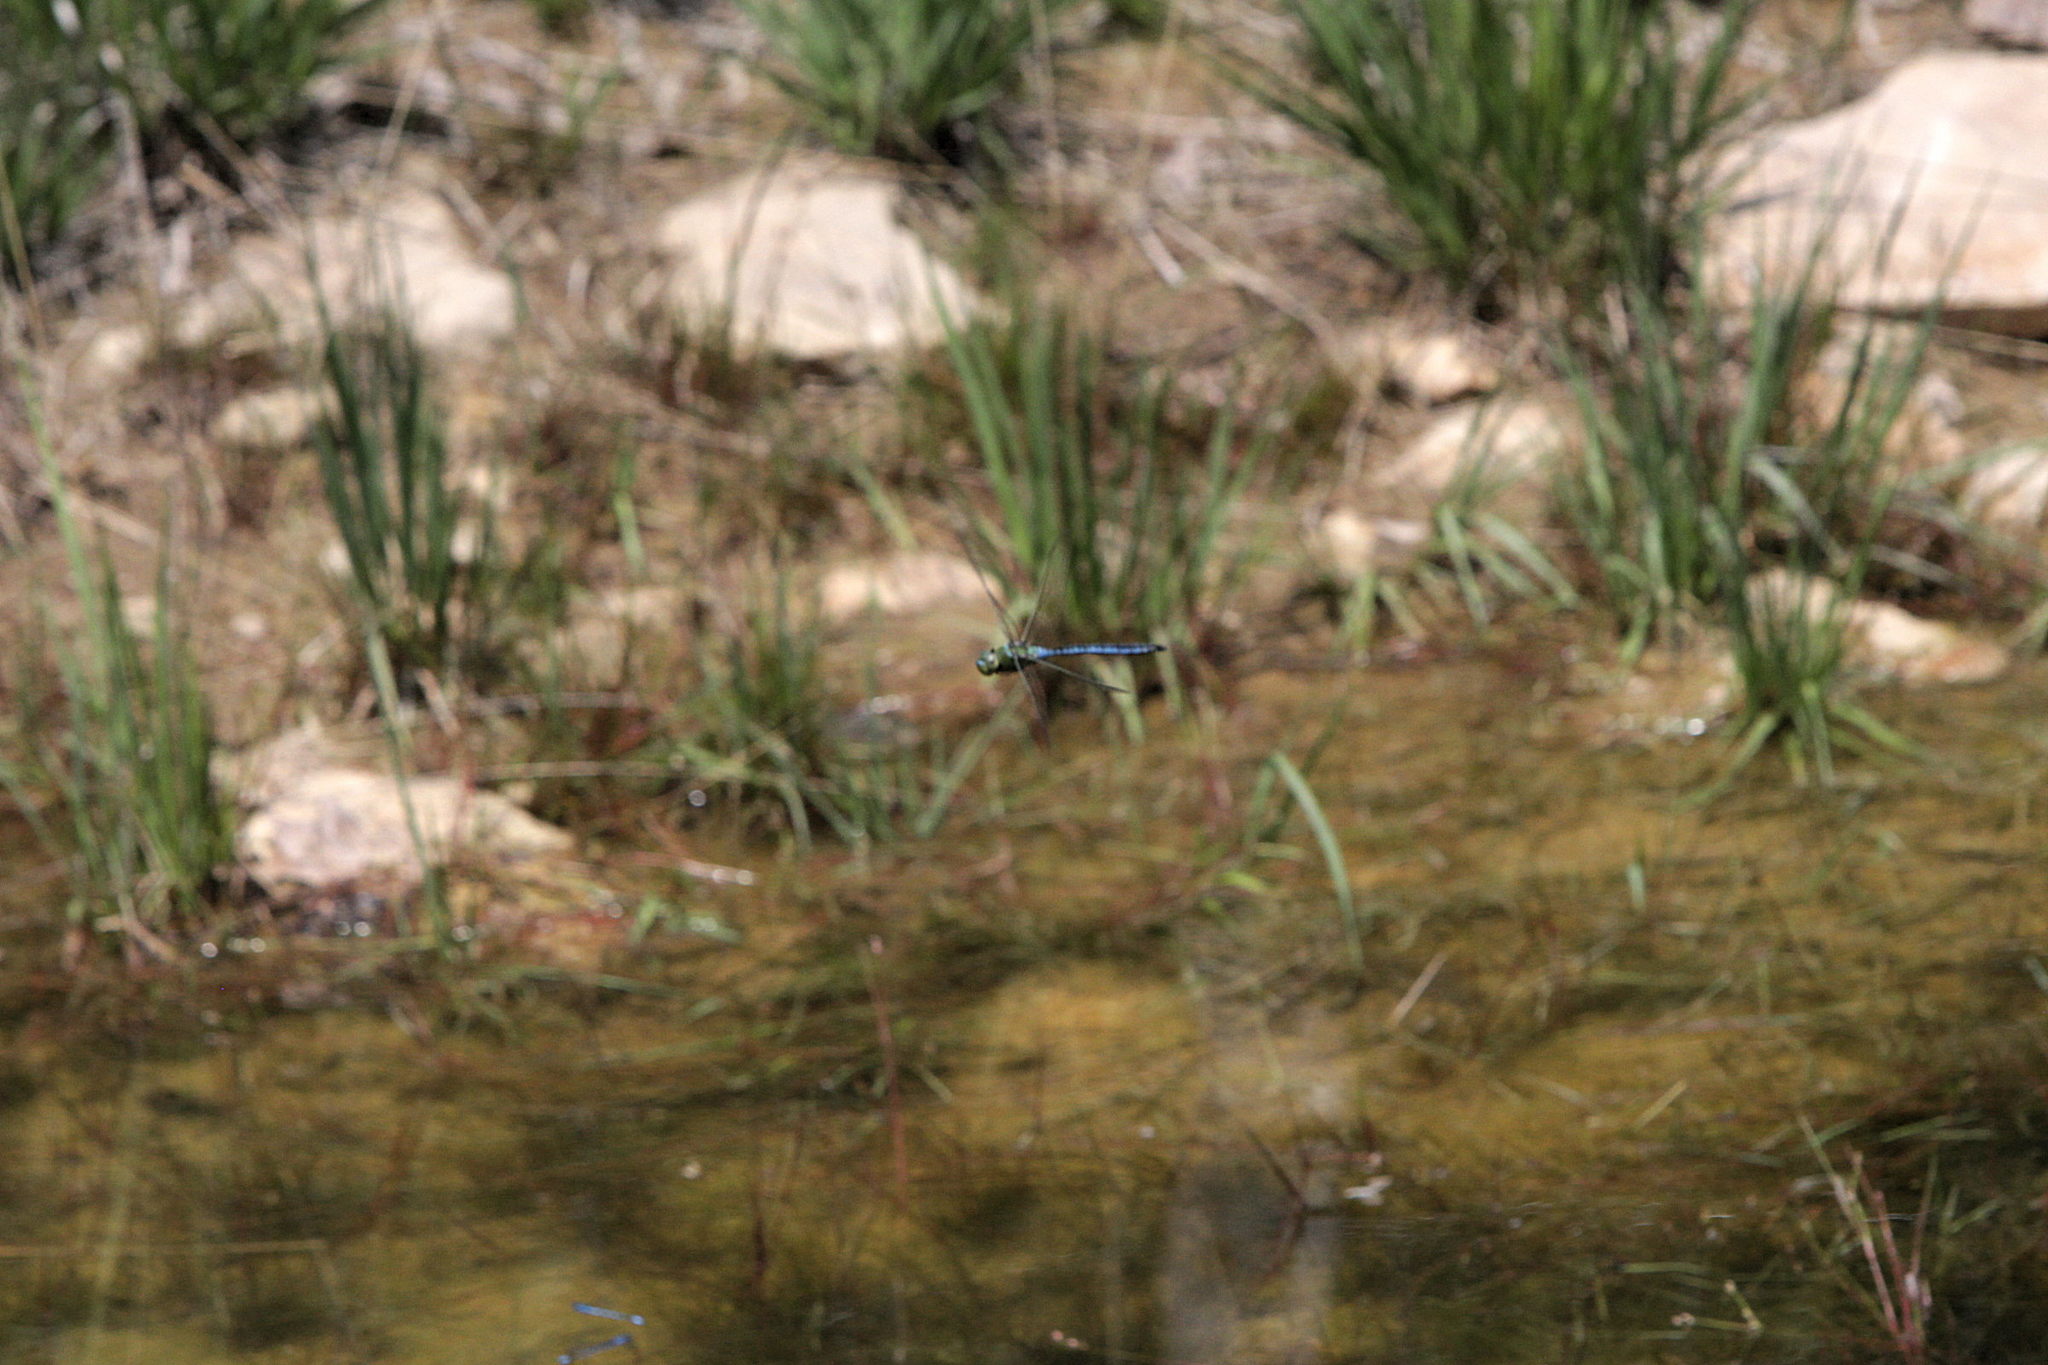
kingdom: Animalia
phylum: Arthropoda
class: Insecta
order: Odonata
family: Aeshnidae
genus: Anax
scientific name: Anax imperator
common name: Emperor dragonfly
